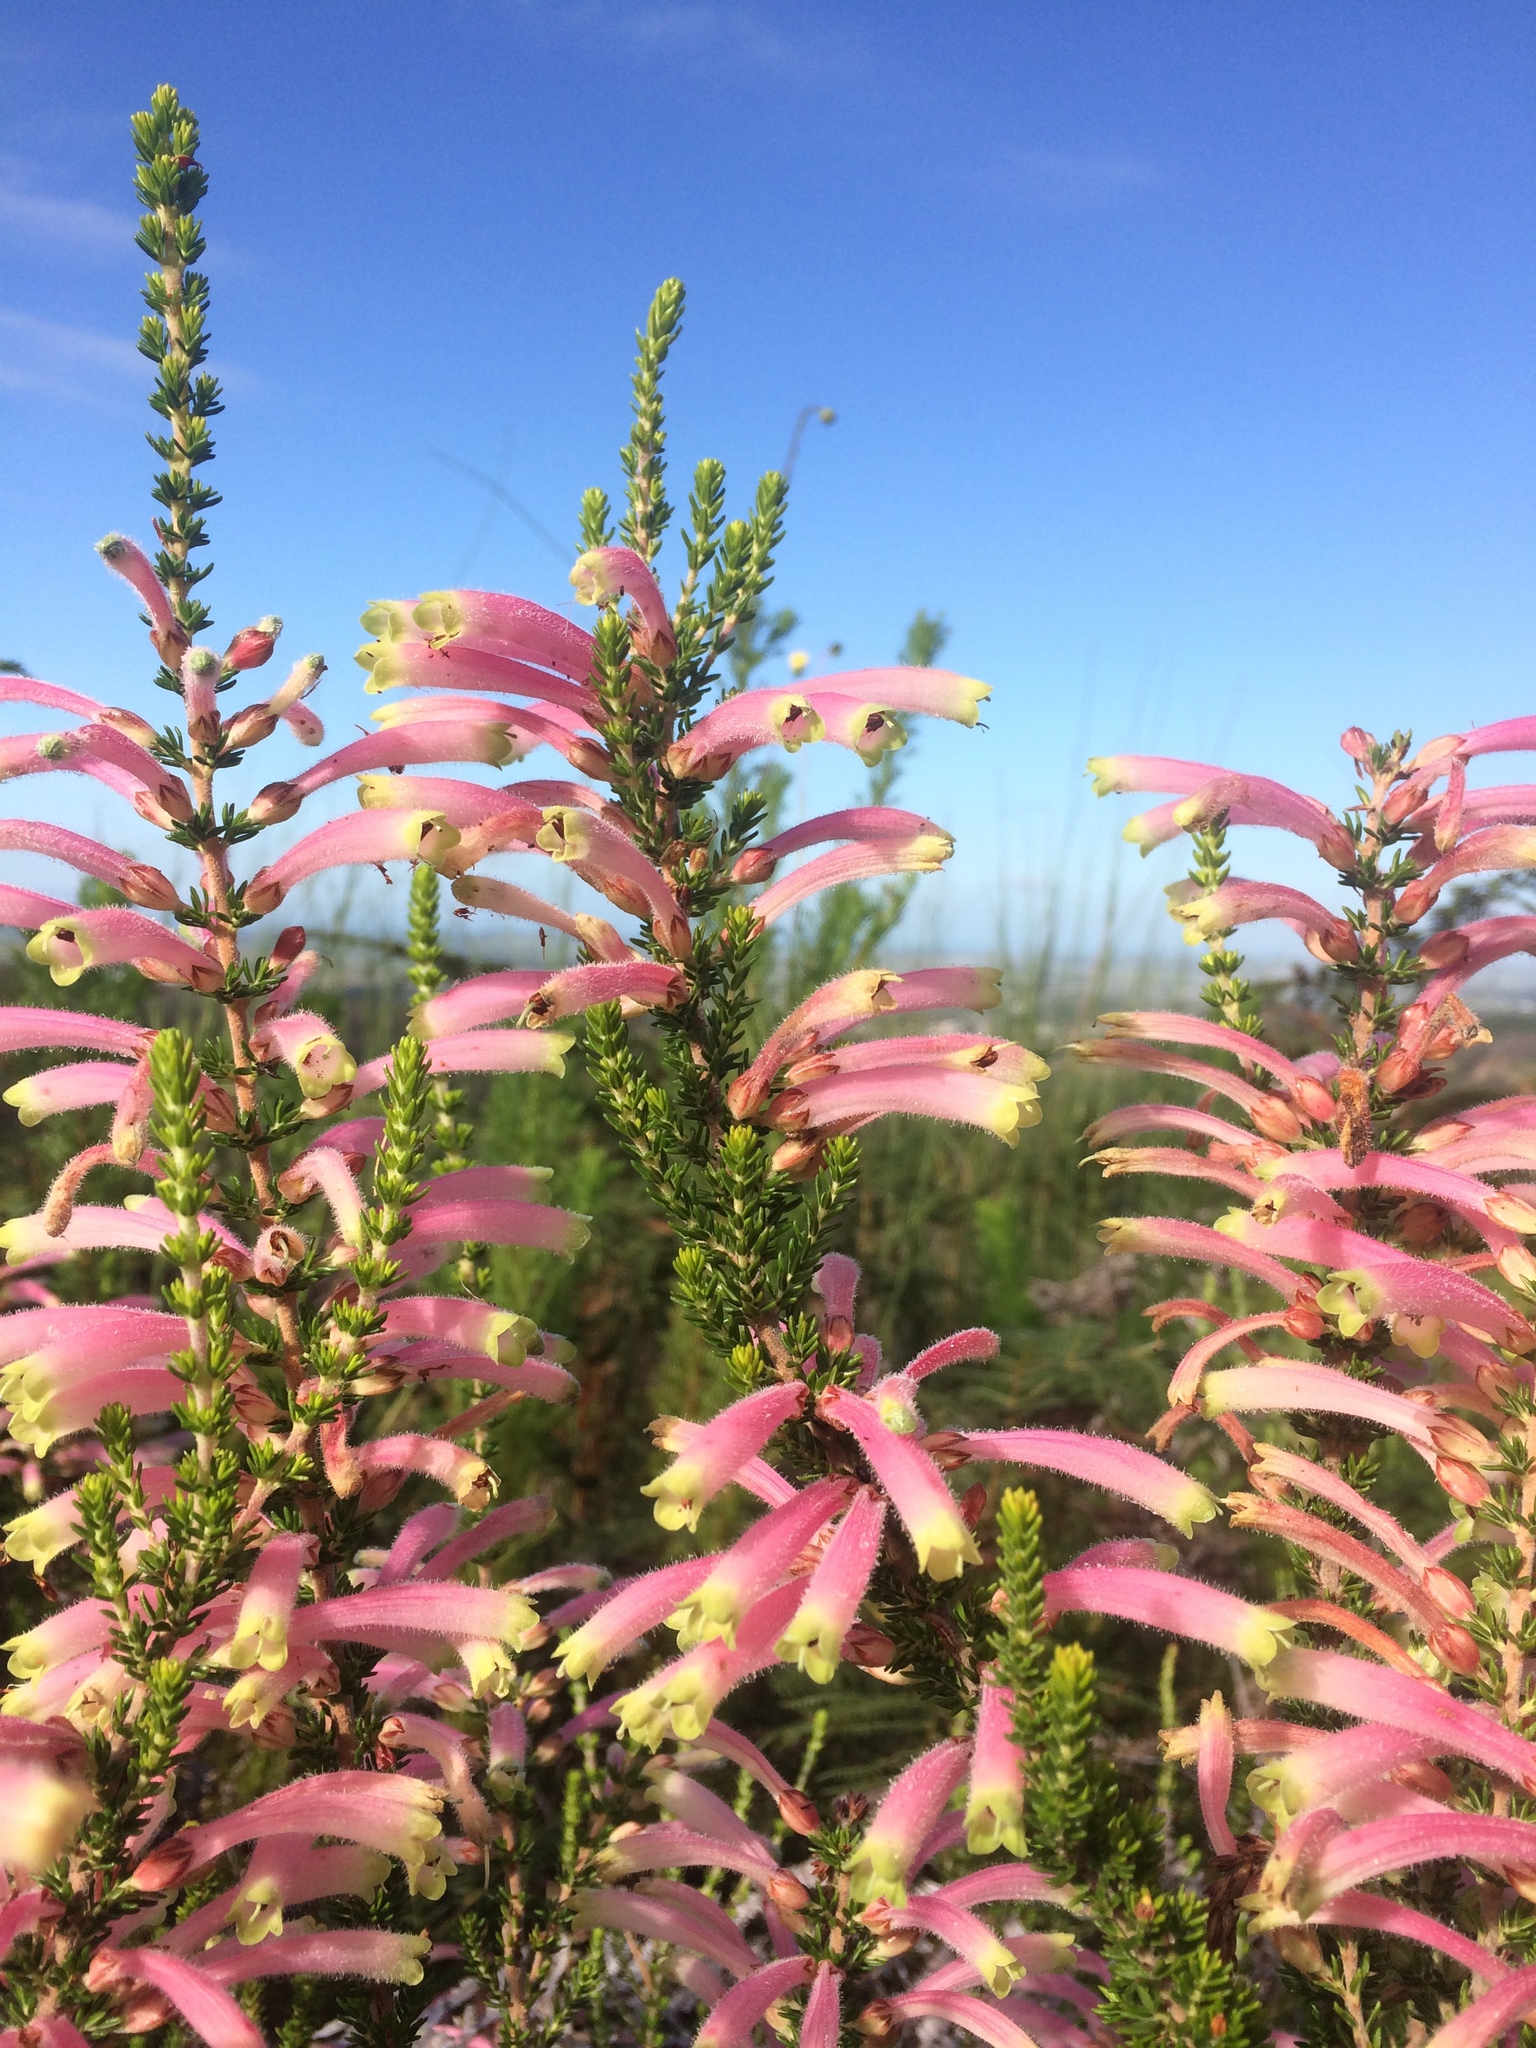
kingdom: Plantae
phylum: Tracheophyta
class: Magnoliopsida
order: Ericales
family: Ericaceae
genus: Erica
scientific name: Erica densifolia
